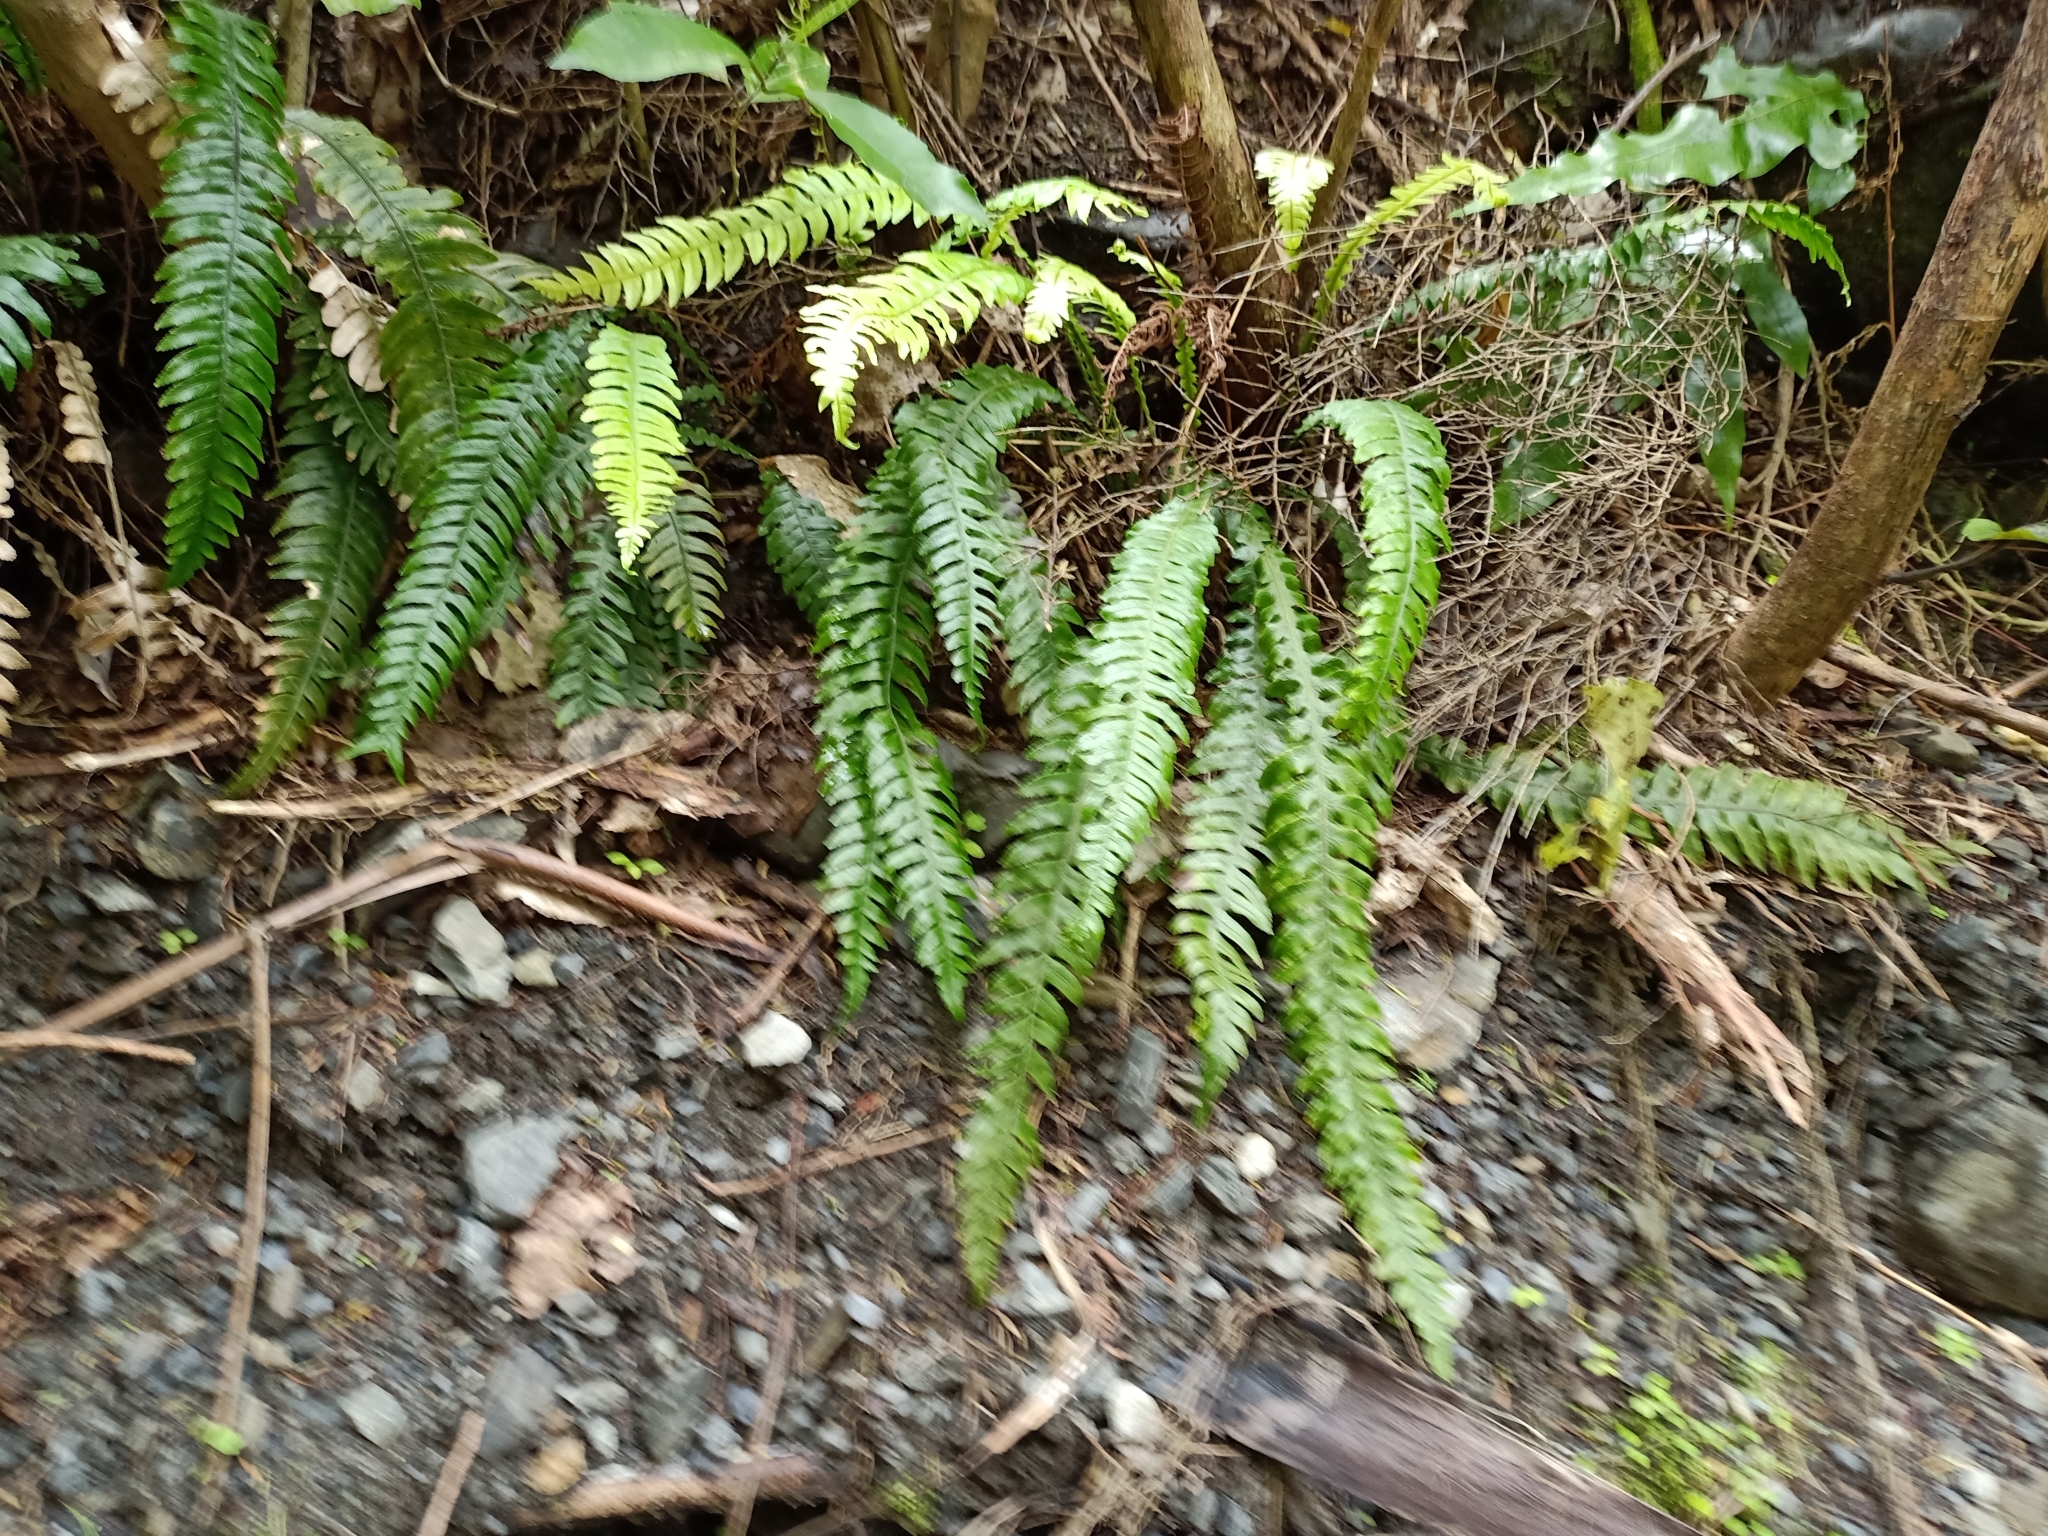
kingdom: Plantae
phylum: Tracheophyta
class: Polypodiopsida
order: Polypodiales
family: Blechnaceae
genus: Austroblechnum
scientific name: Austroblechnum lanceolatum
